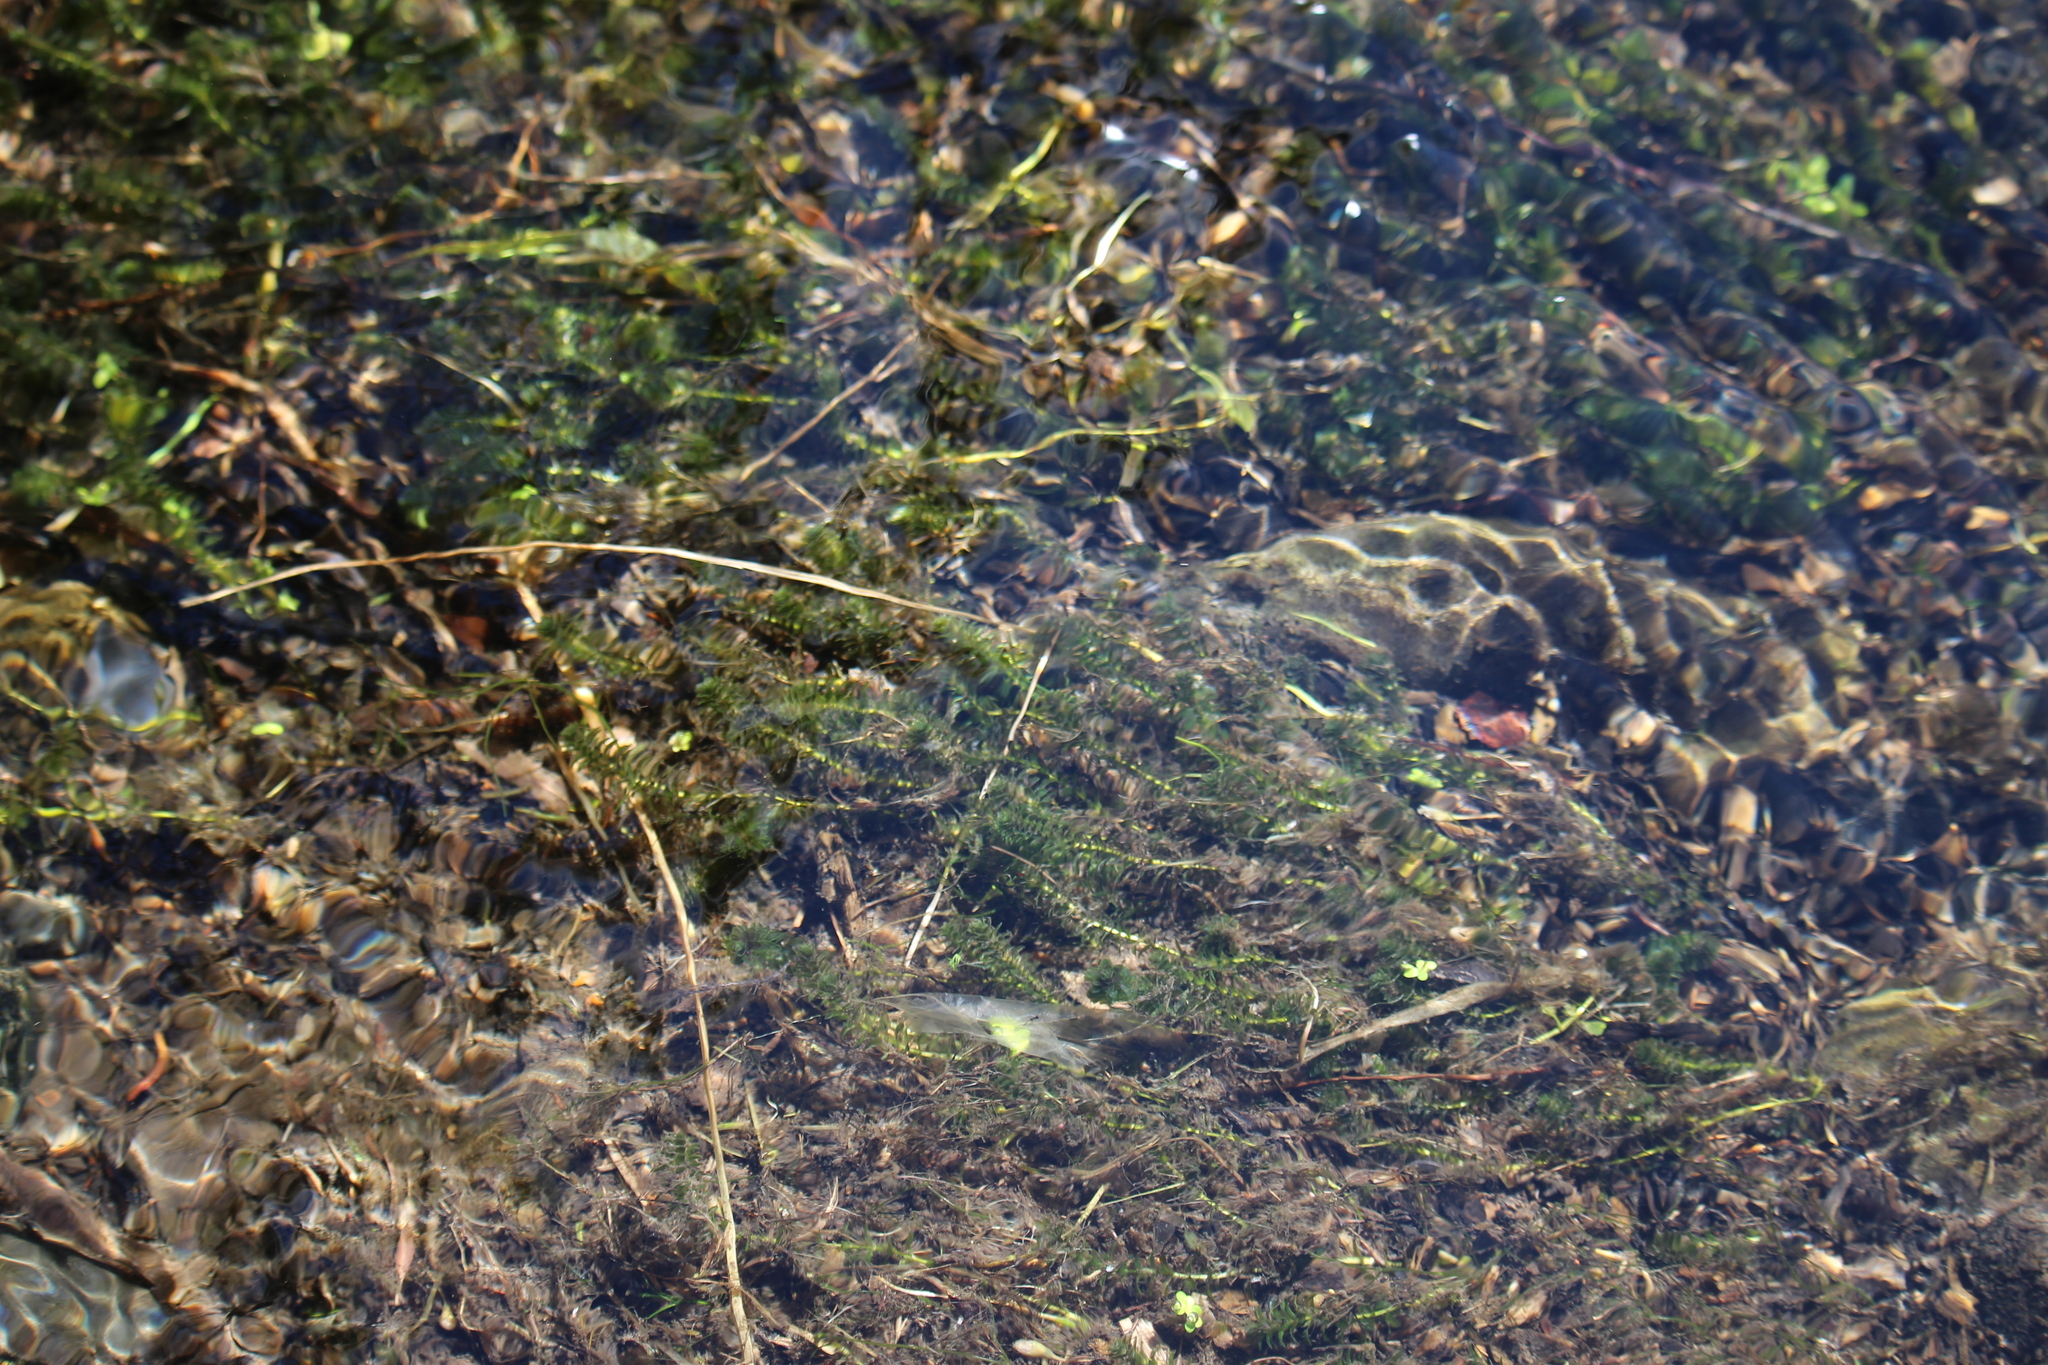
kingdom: Plantae
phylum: Tracheophyta
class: Liliopsida
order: Alismatales
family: Hydrocharitaceae
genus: Elodea
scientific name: Elodea canadensis
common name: Canadian waterweed
